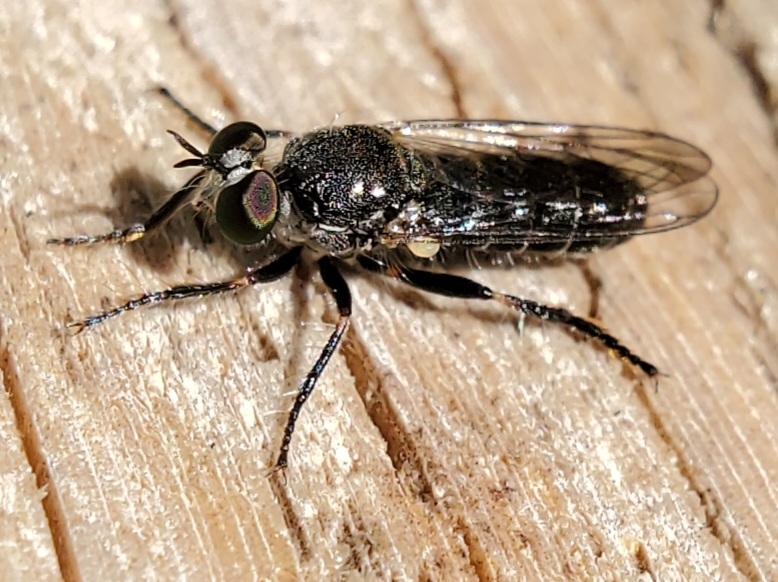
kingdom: Animalia
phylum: Arthropoda
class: Insecta
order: Diptera
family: Asilidae
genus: Atomosia
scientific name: Atomosia puella
